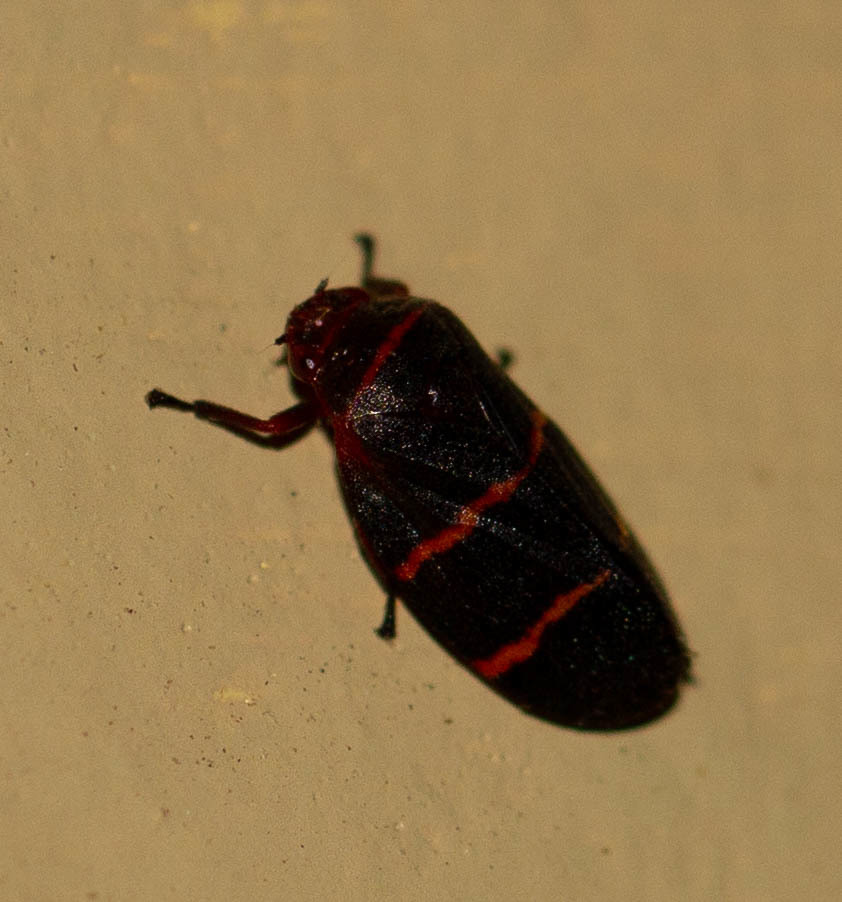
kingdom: Animalia
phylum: Arthropoda
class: Insecta
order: Hemiptera
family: Cercopidae
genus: Prosapia
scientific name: Prosapia bicincta
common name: Twolined spittlebug
